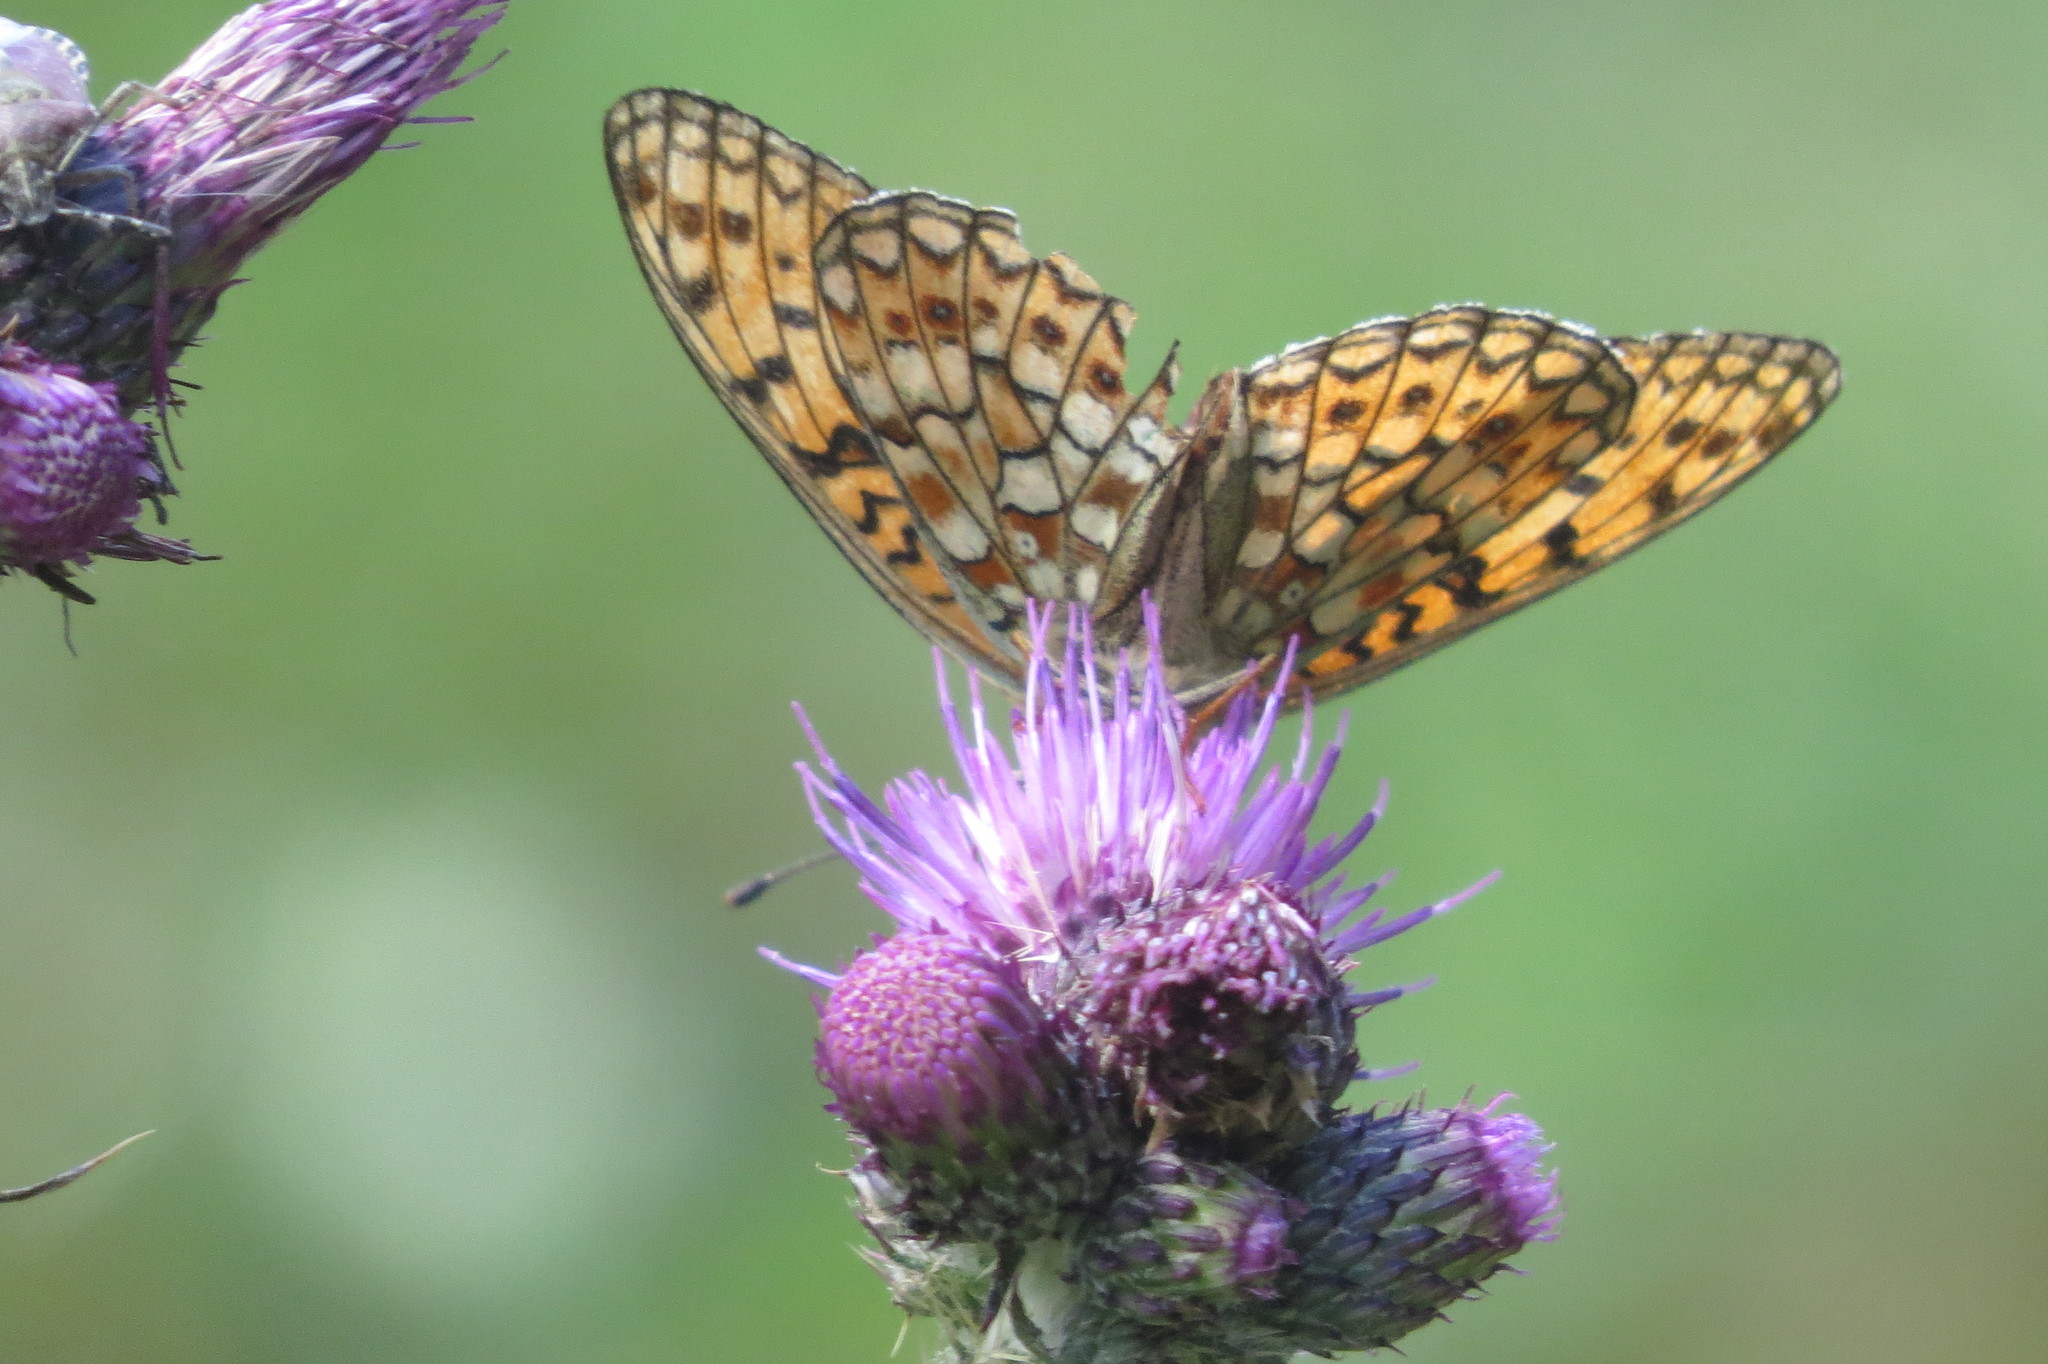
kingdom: Animalia
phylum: Arthropoda
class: Insecta
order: Lepidoptera
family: Nymphalidae
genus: Fabriciana
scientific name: Fabriciana niobe
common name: Niobe fritillary
